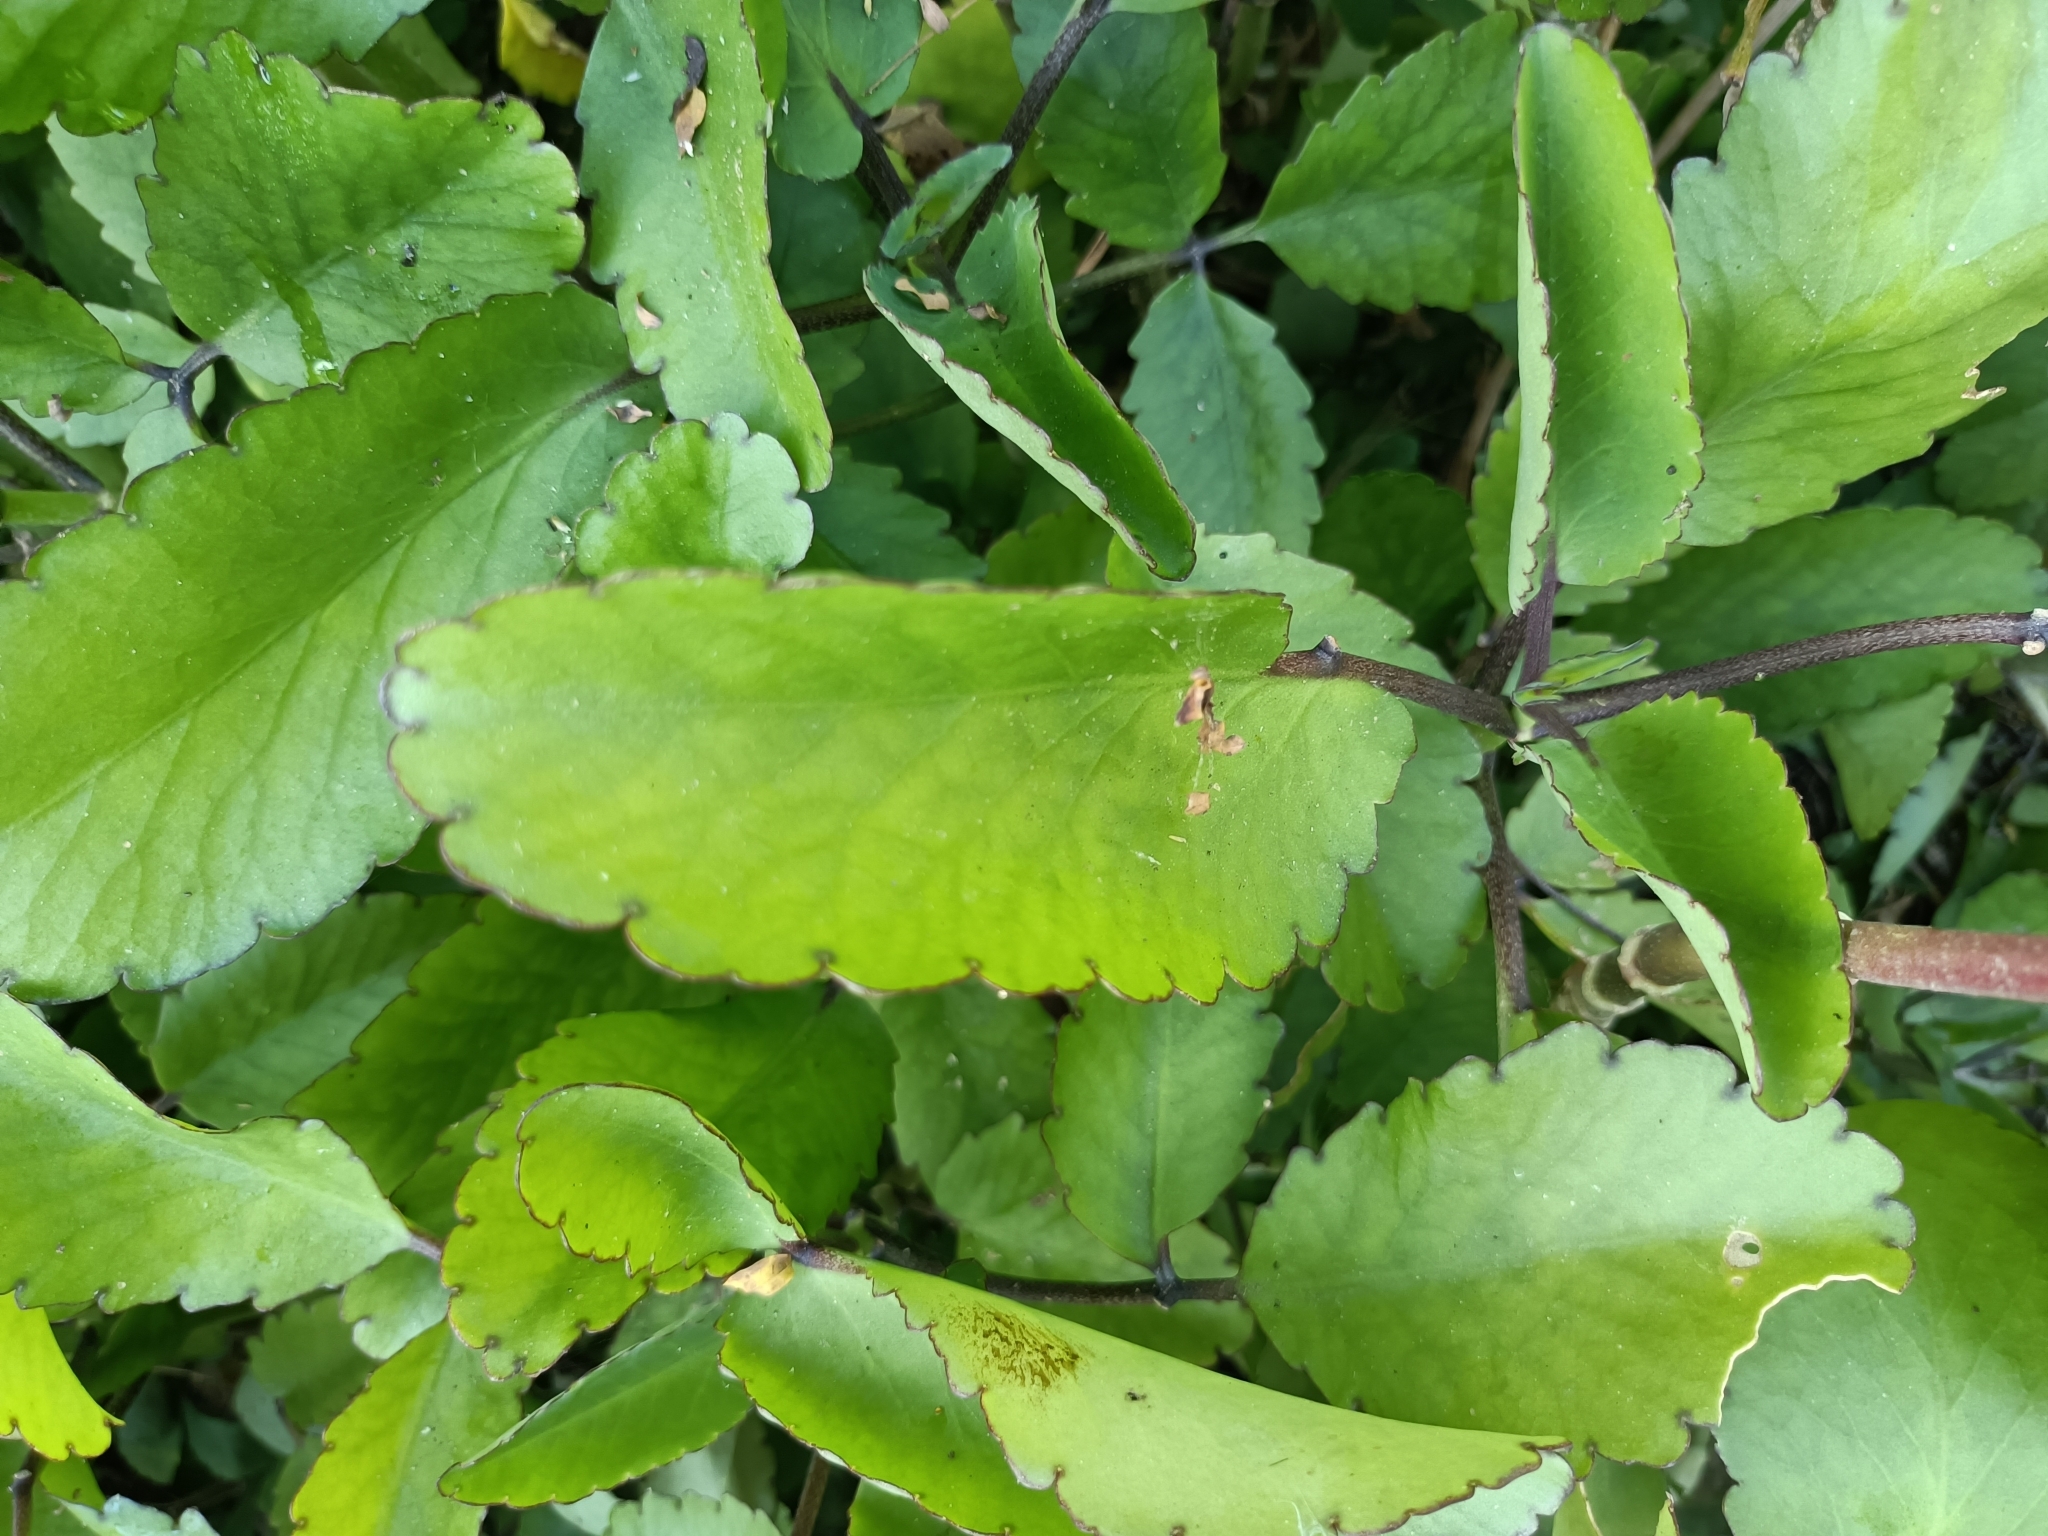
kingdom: Plantae
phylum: Tracheophyta
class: Magnoliopsida
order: Saxifragales
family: Crassulaceae
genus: Kalanchoe
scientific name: Kalanchoe pinnata
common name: Cathedral bells
